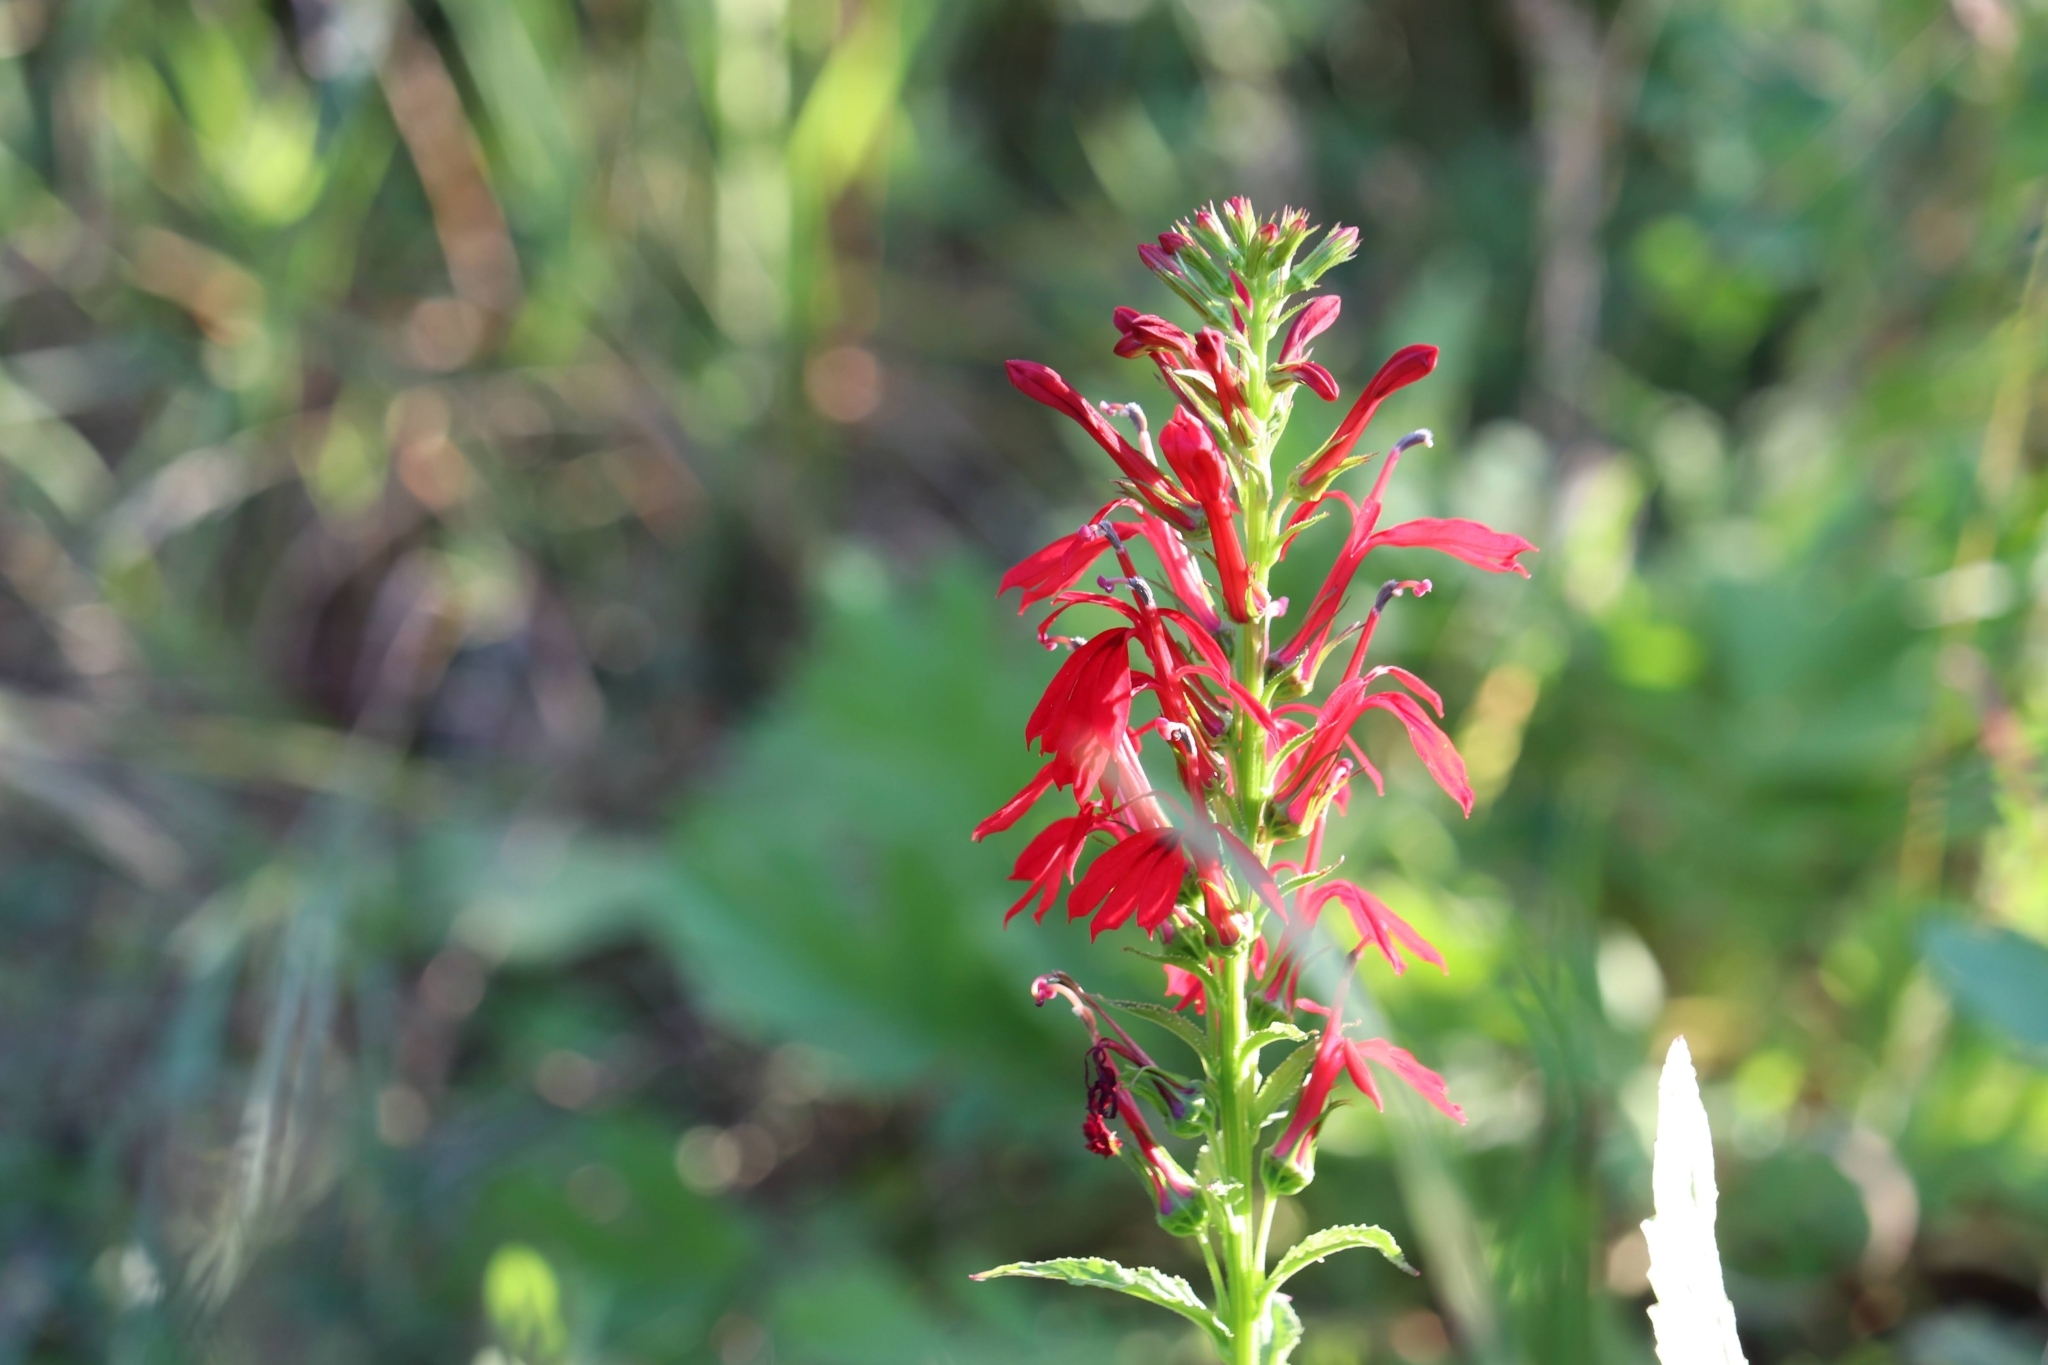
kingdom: Plantae
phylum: Tracheophyta
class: Magnoliopsida
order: Asterales
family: Campanulaceae
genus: Lobelia
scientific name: Lobelia cardinalis
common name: Cardinal flower
